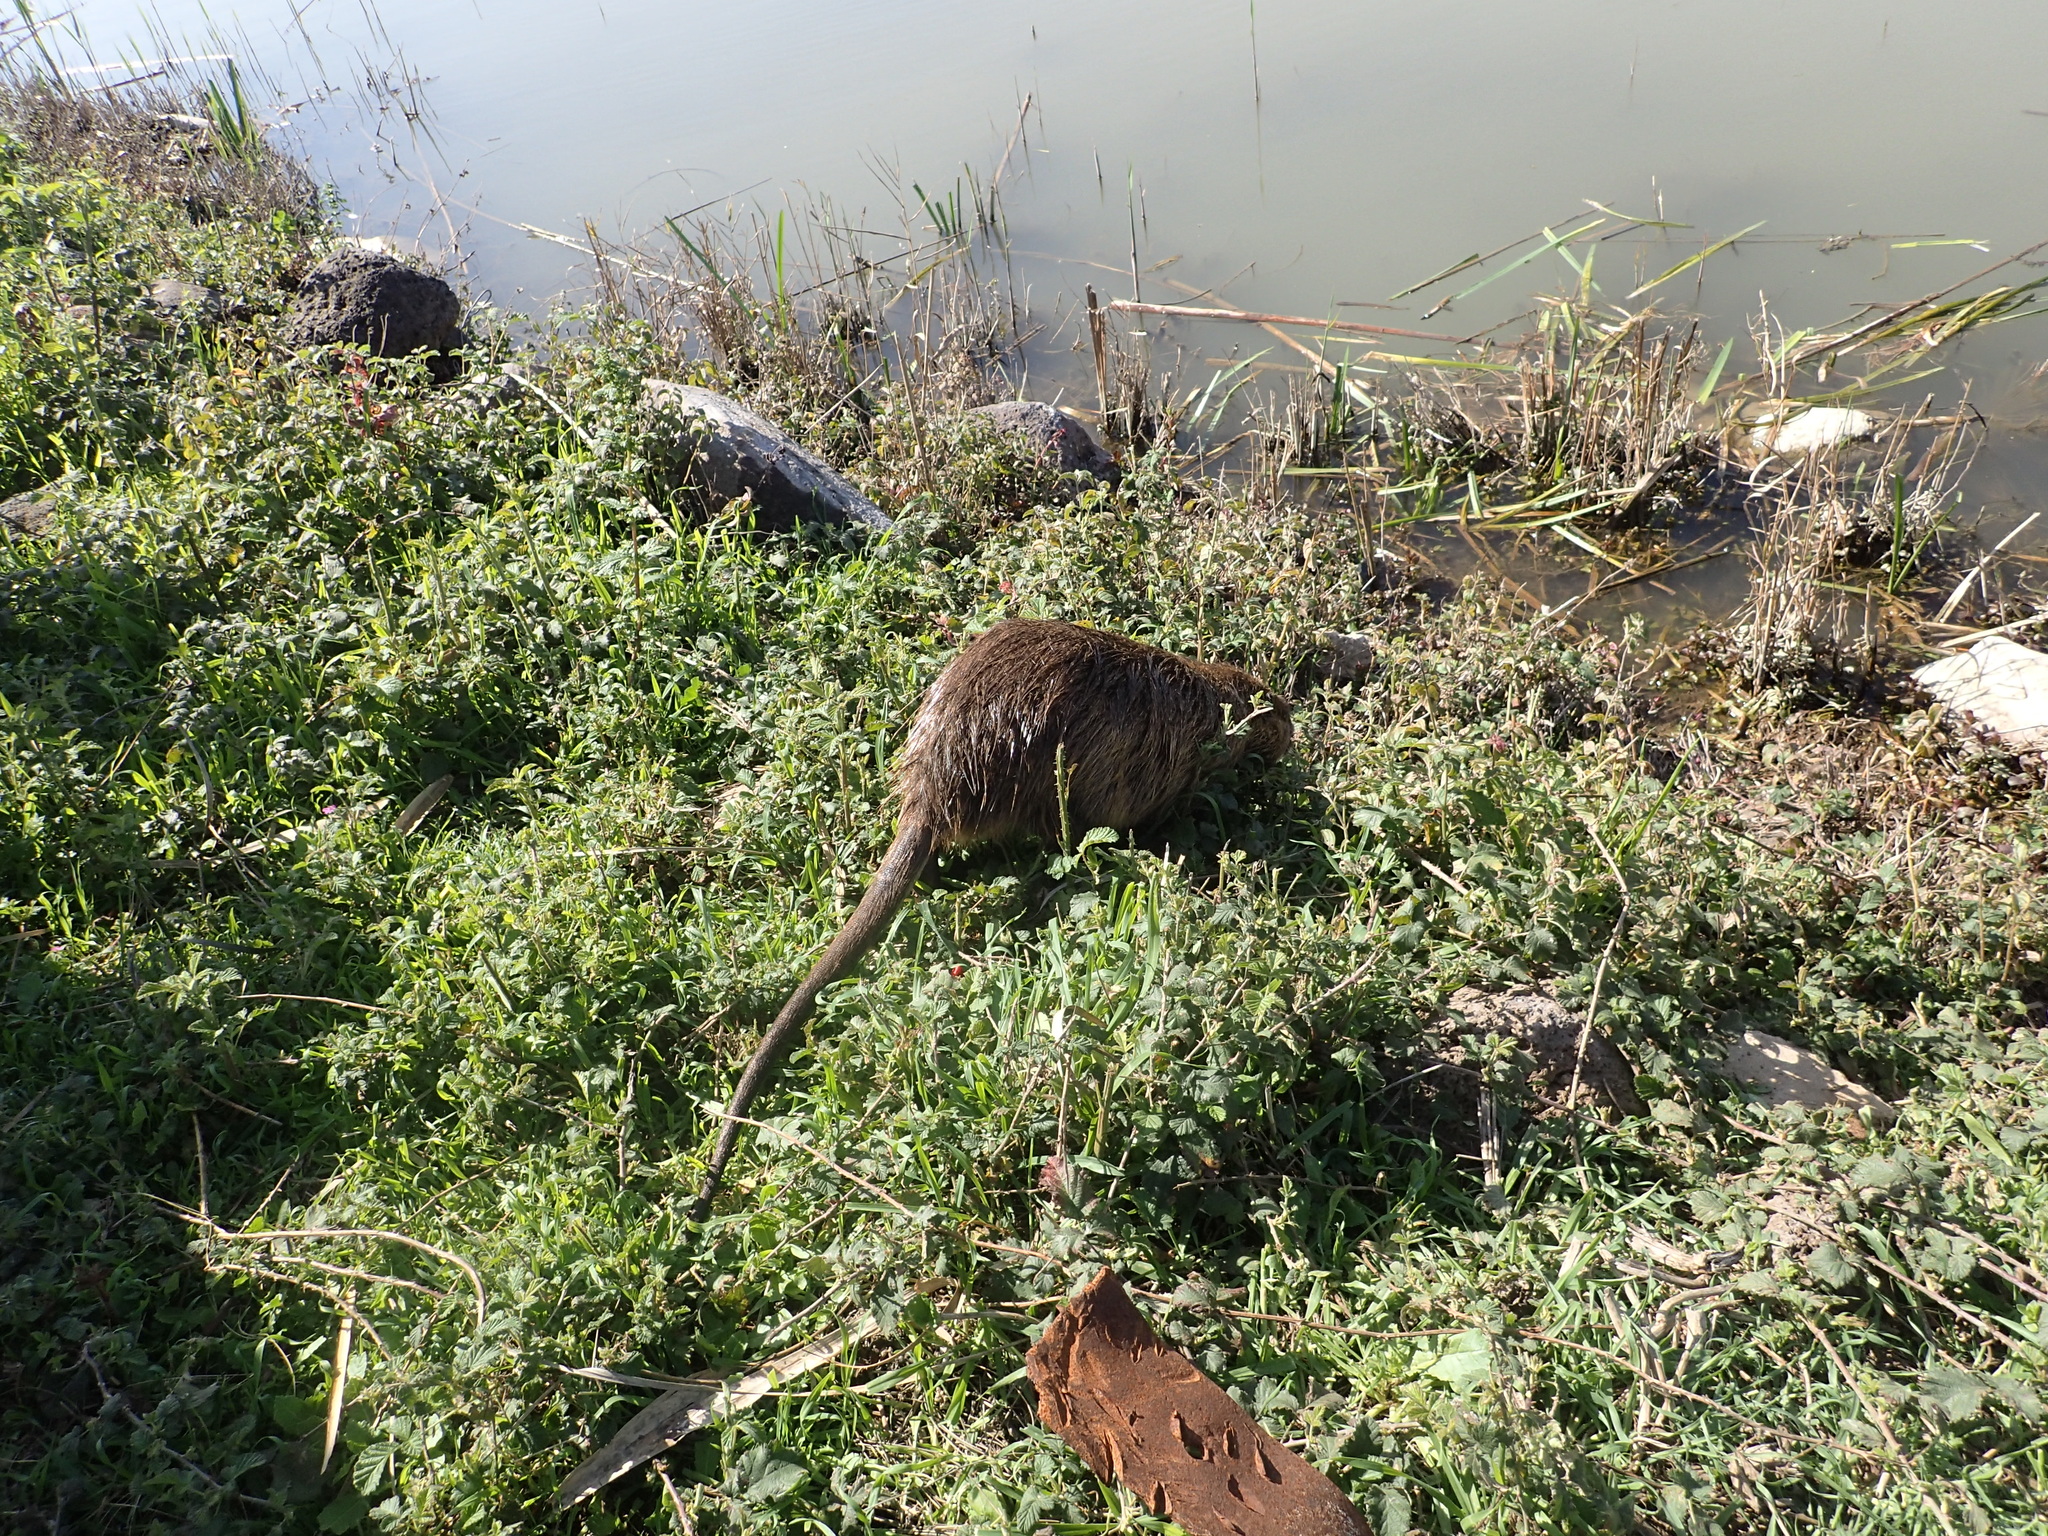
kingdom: Animalia
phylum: Chordata
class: Mammalia
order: Rodentia
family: Myocastoridae
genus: Myocastor
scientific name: Myocastor coypus
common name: Coypu
